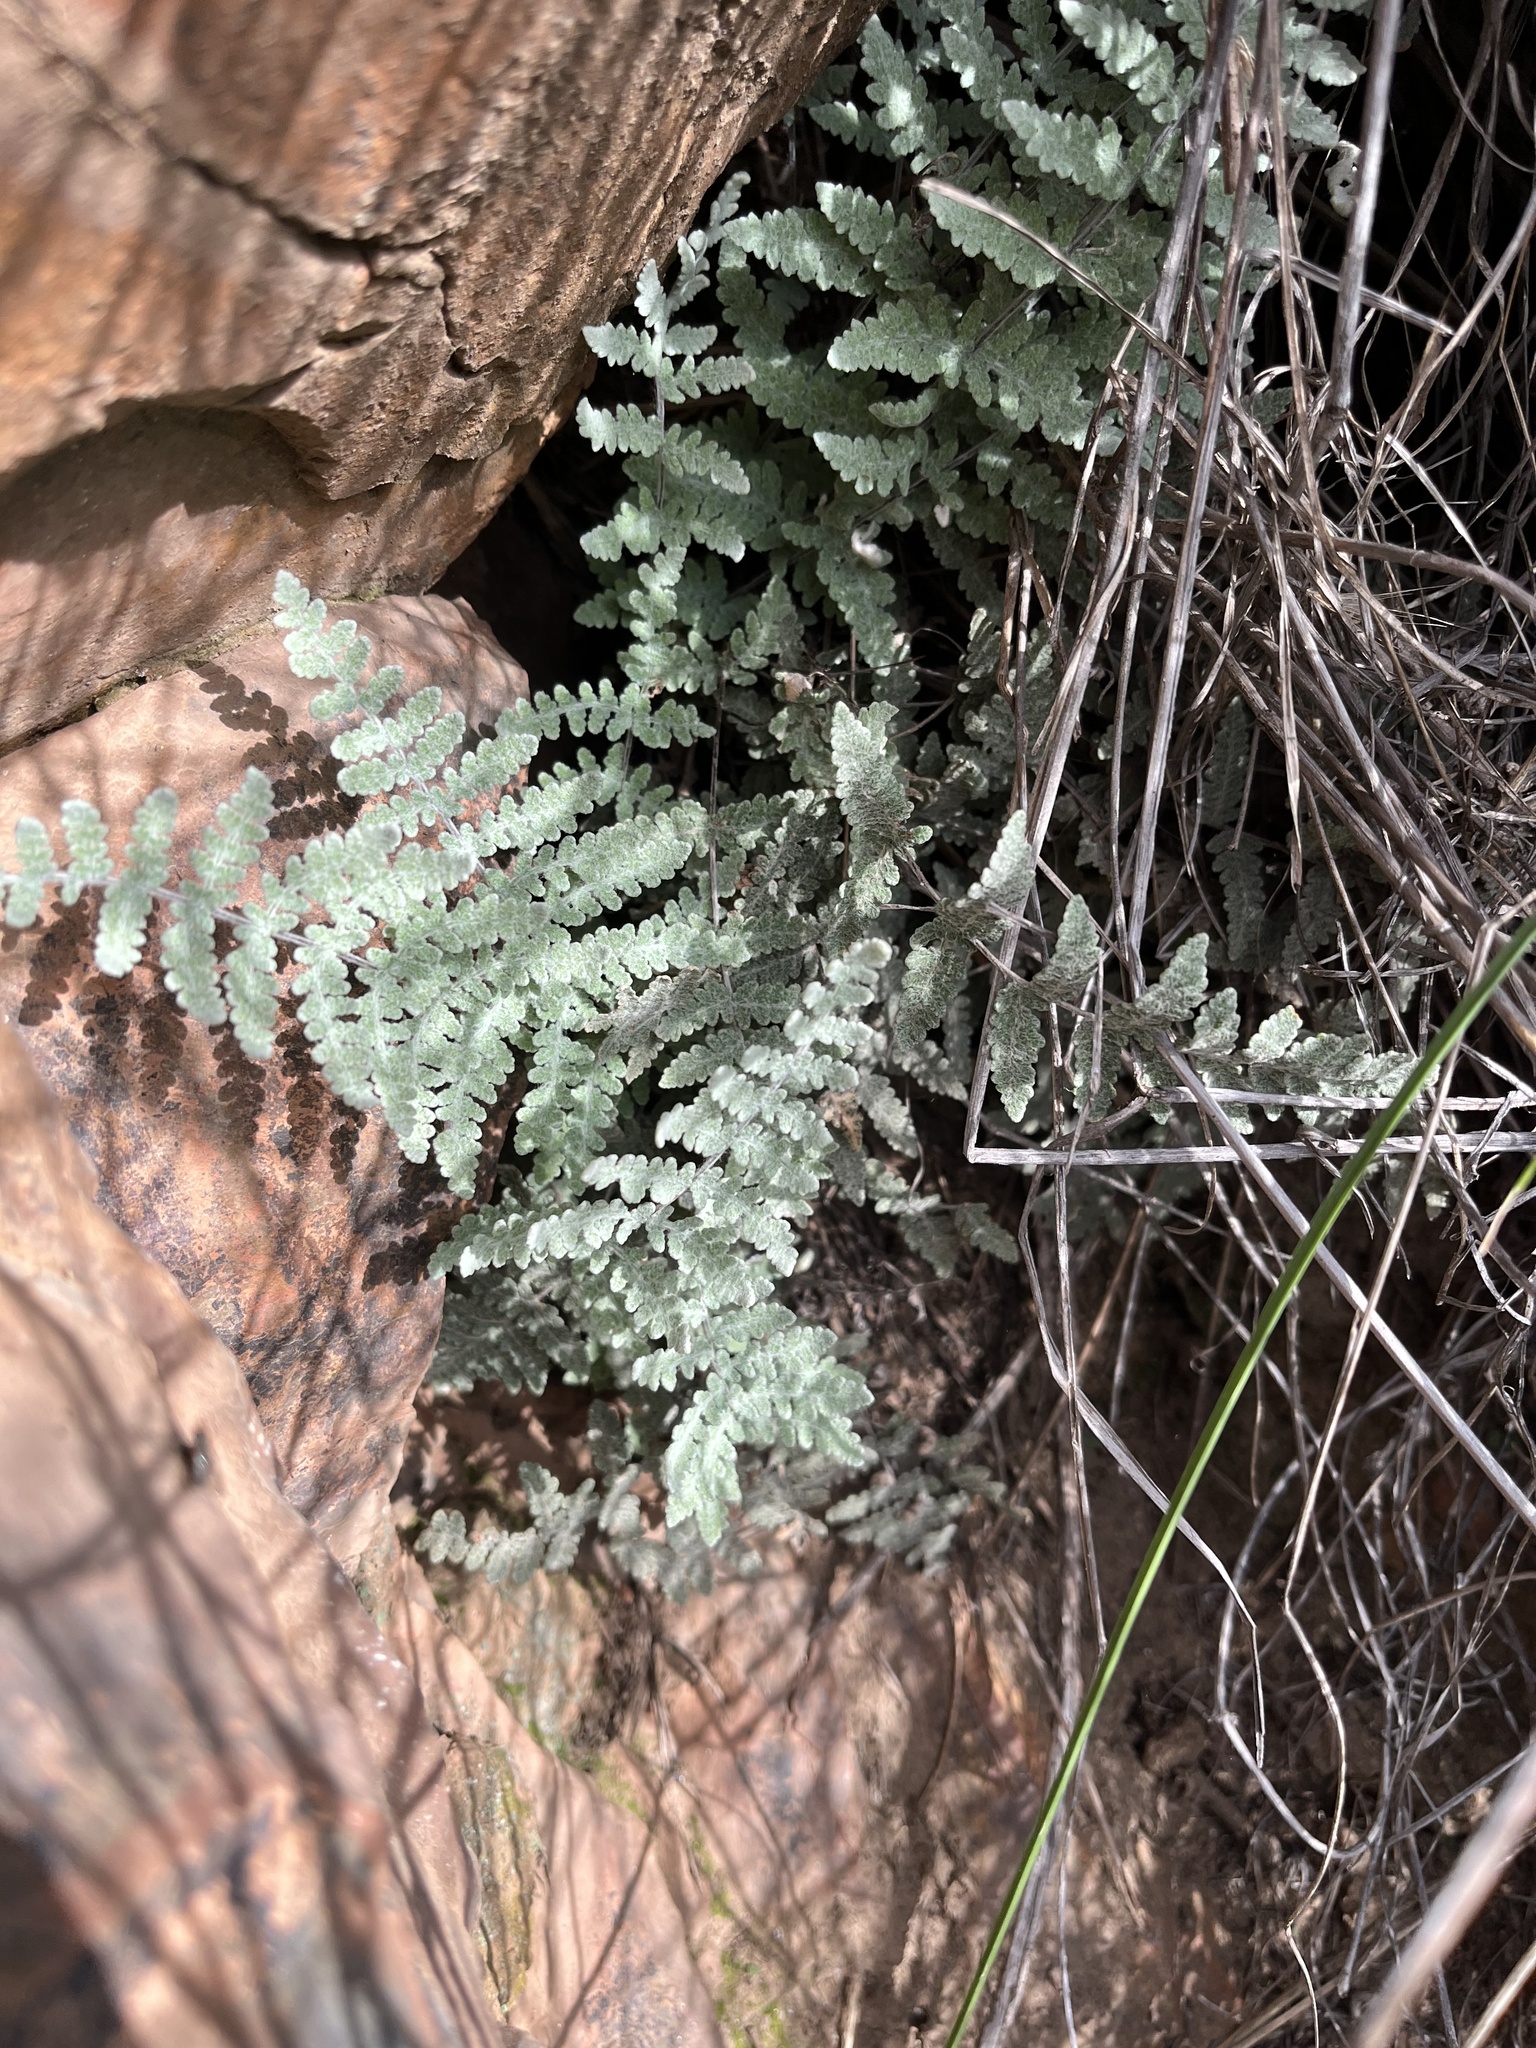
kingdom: Plantae
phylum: Tracheophyta
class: Polypodiopsida
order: Polypodiales
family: Pteridaceae
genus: Myriopteris
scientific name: Myriopteris newberryi
